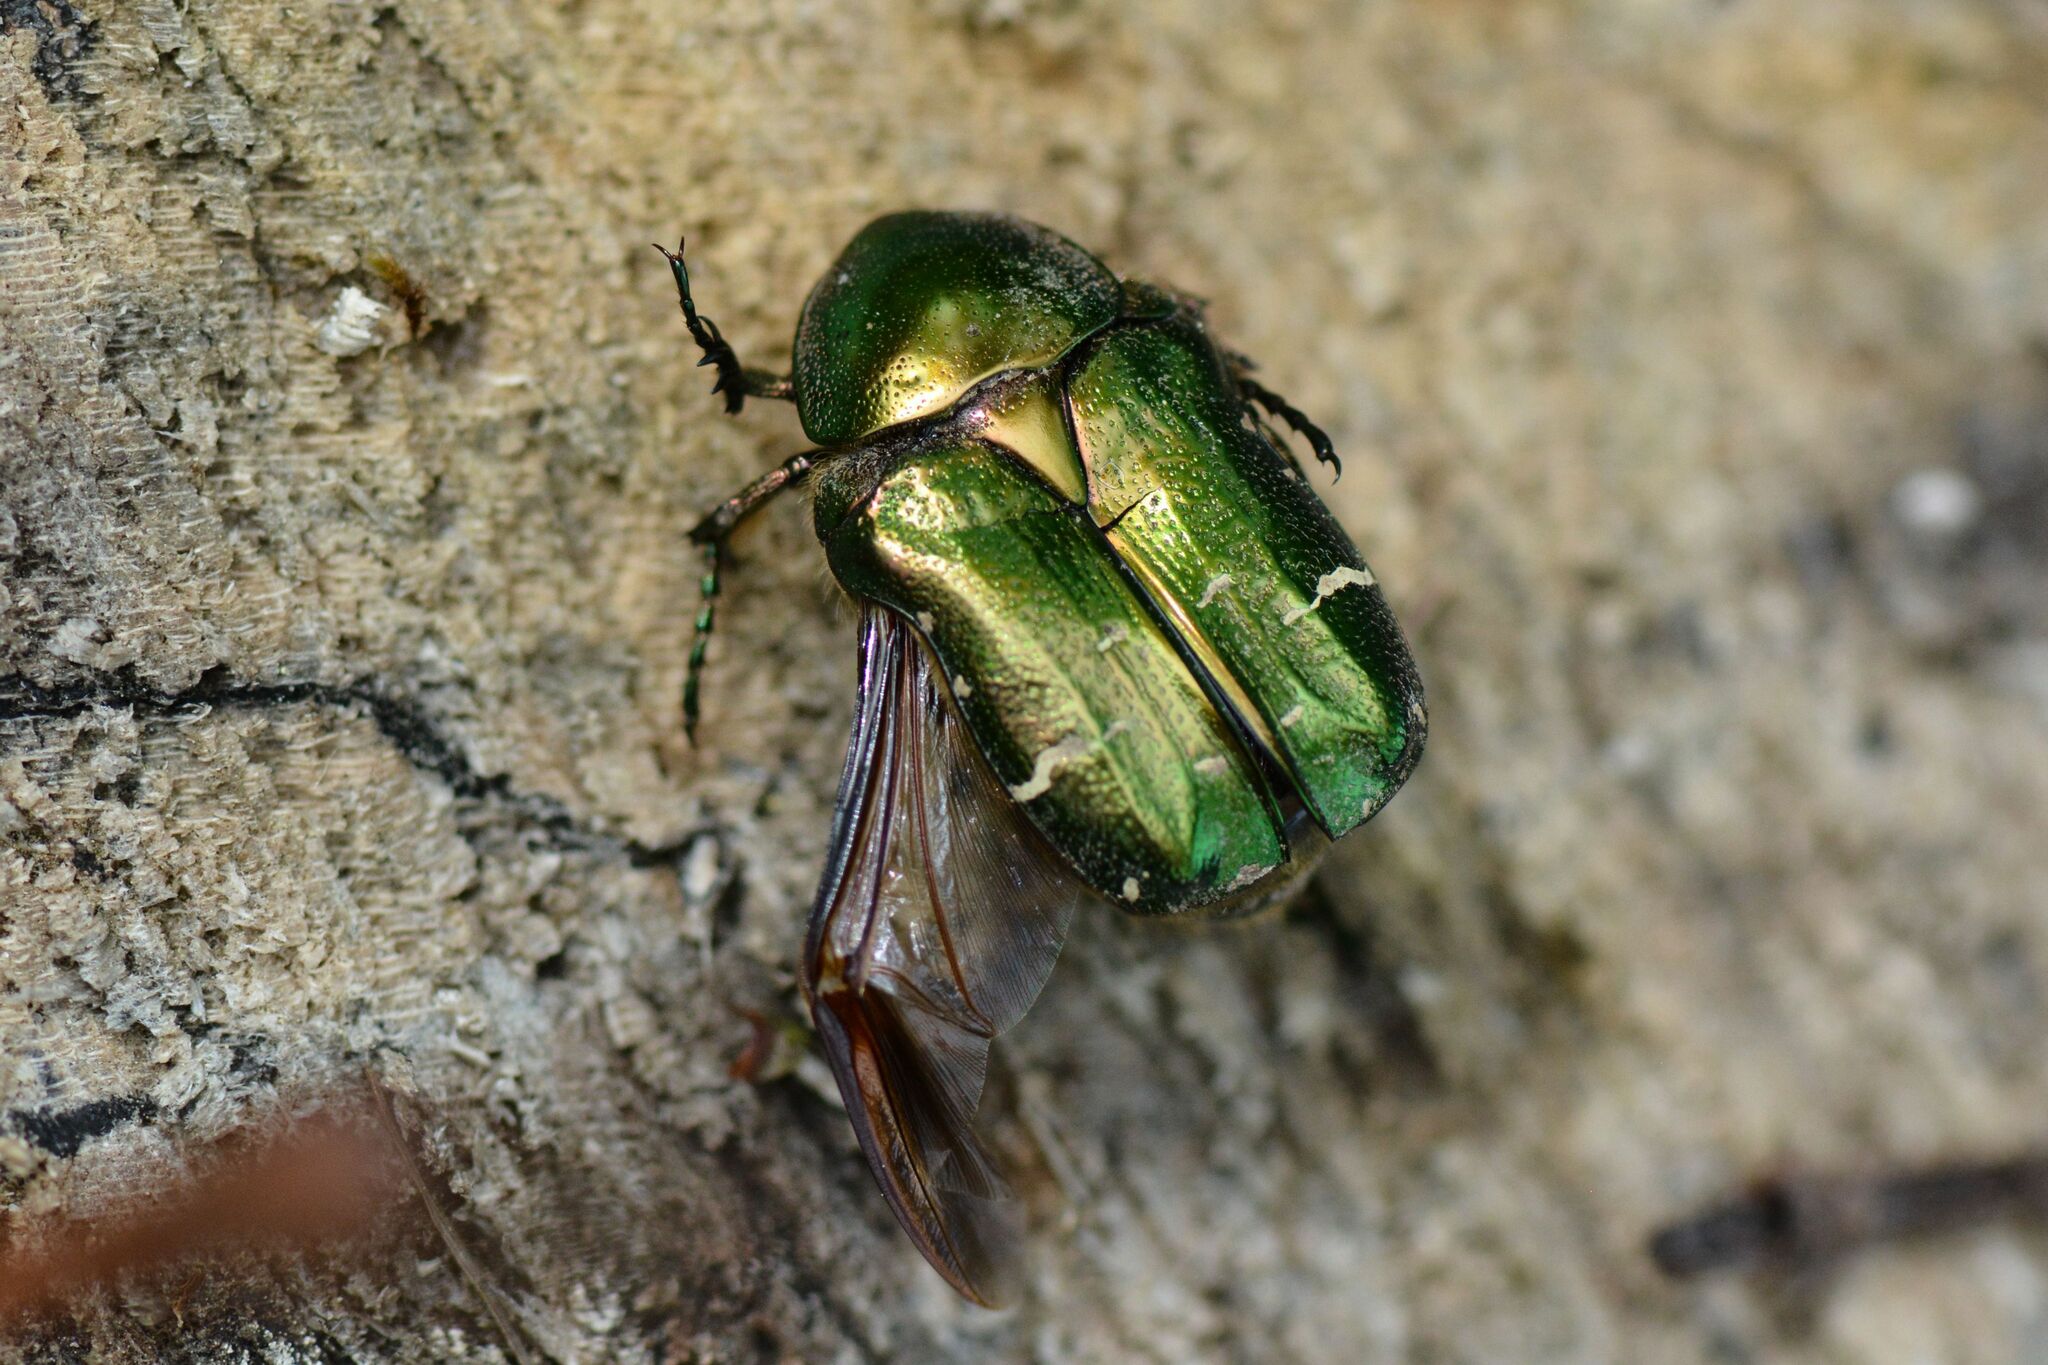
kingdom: Animalia
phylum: Arthropoda
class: Insecta
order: Coleoptera
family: Scarabaeidae
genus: Cetonia
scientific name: Cetonia aurata
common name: Rose chafer
